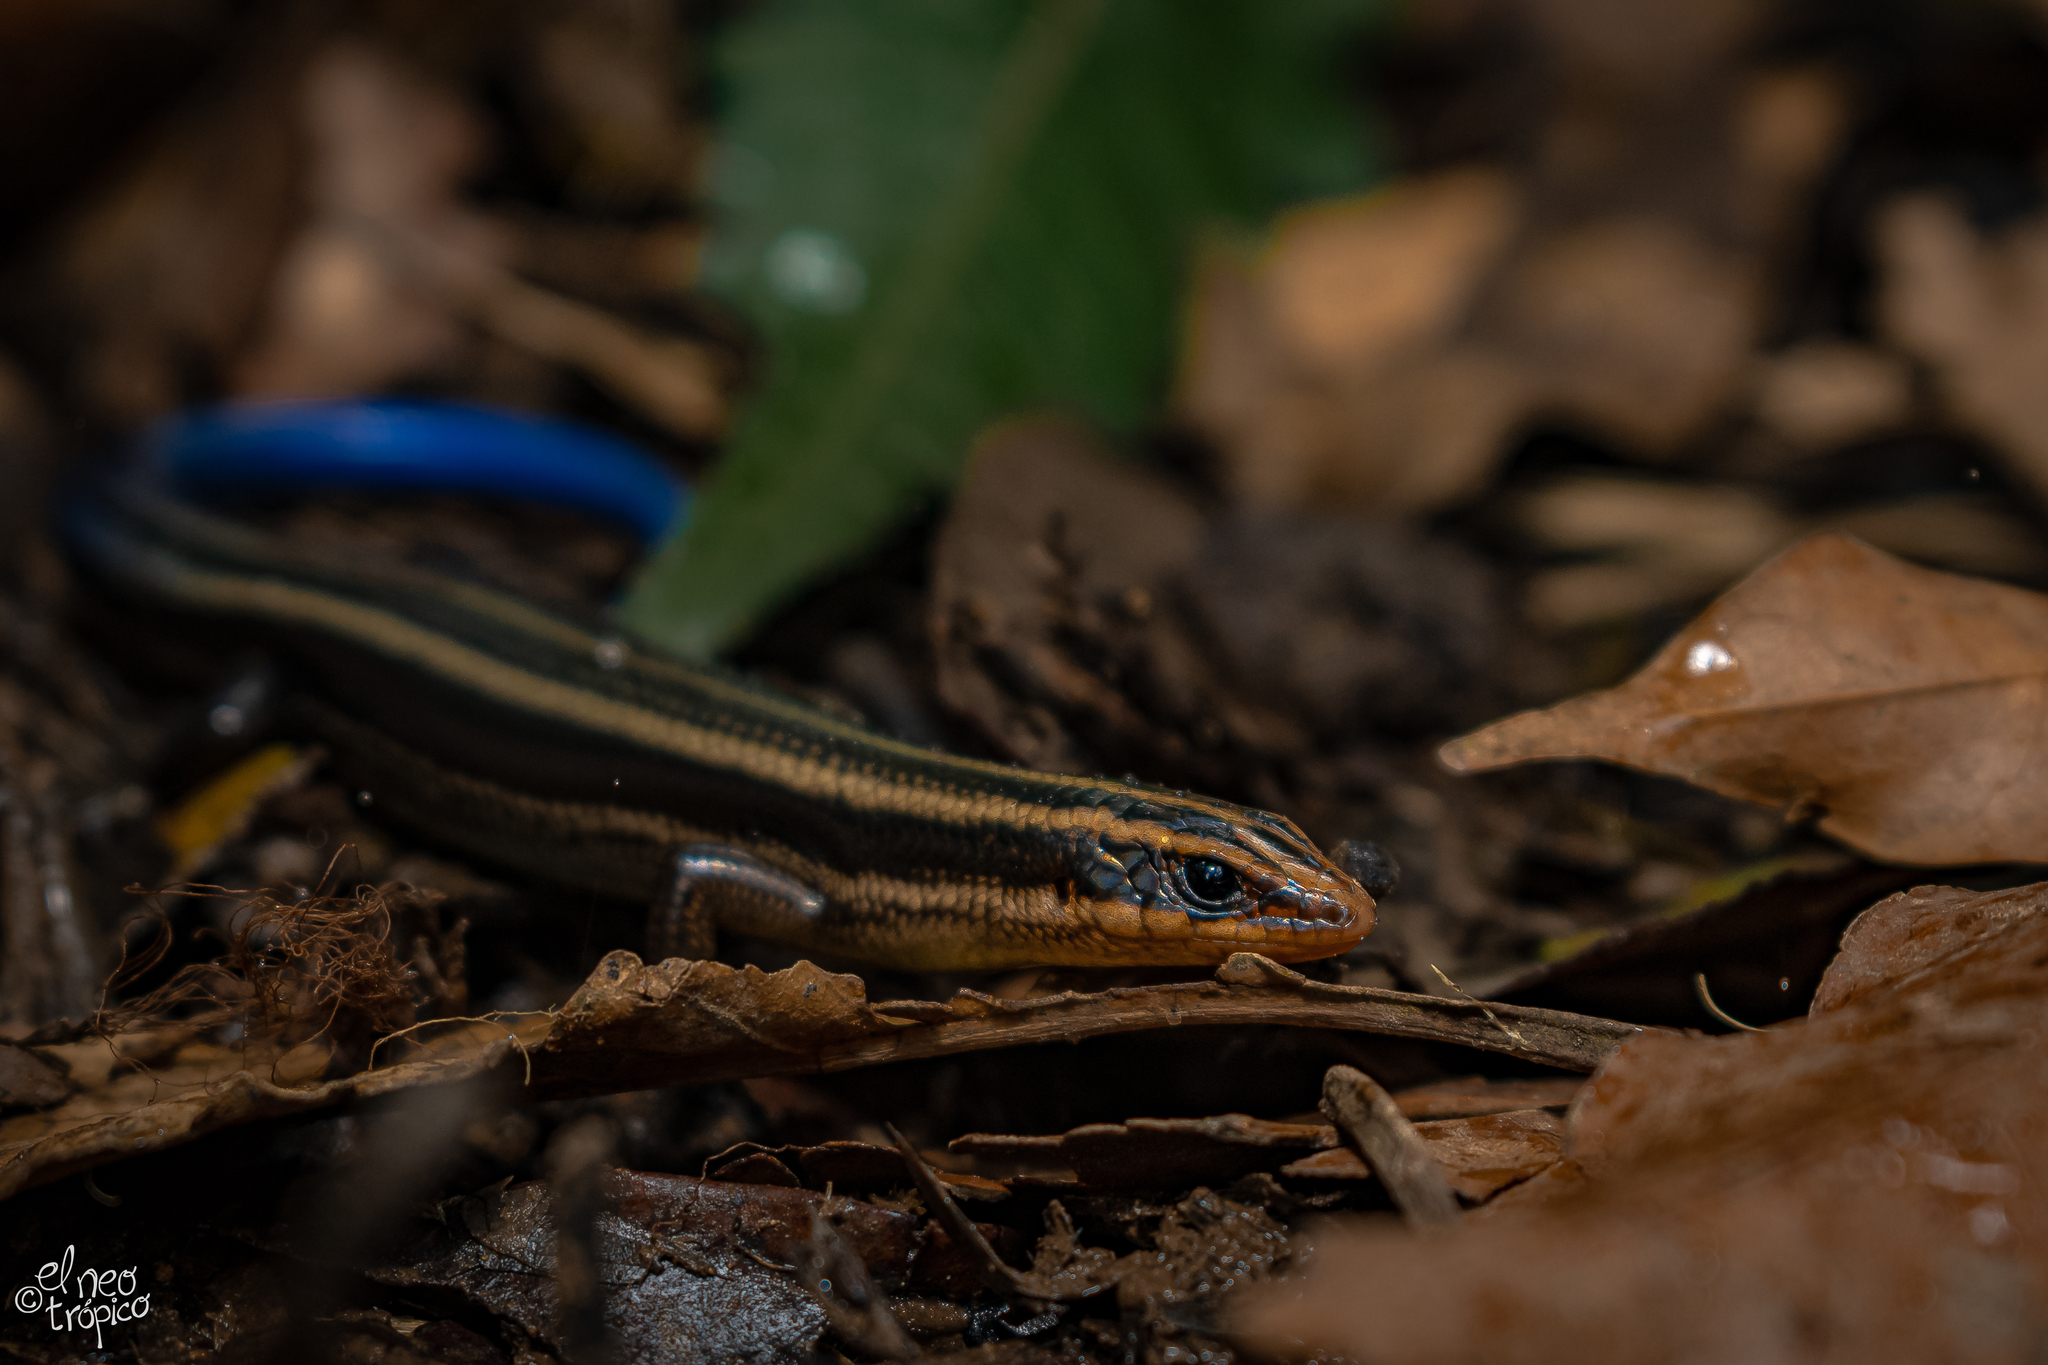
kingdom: Animalia
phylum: Chordata
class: Squamata
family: Scincidae
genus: Plestiodon
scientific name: Plestiodon sumichrasti
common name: Sumichrast's skink
